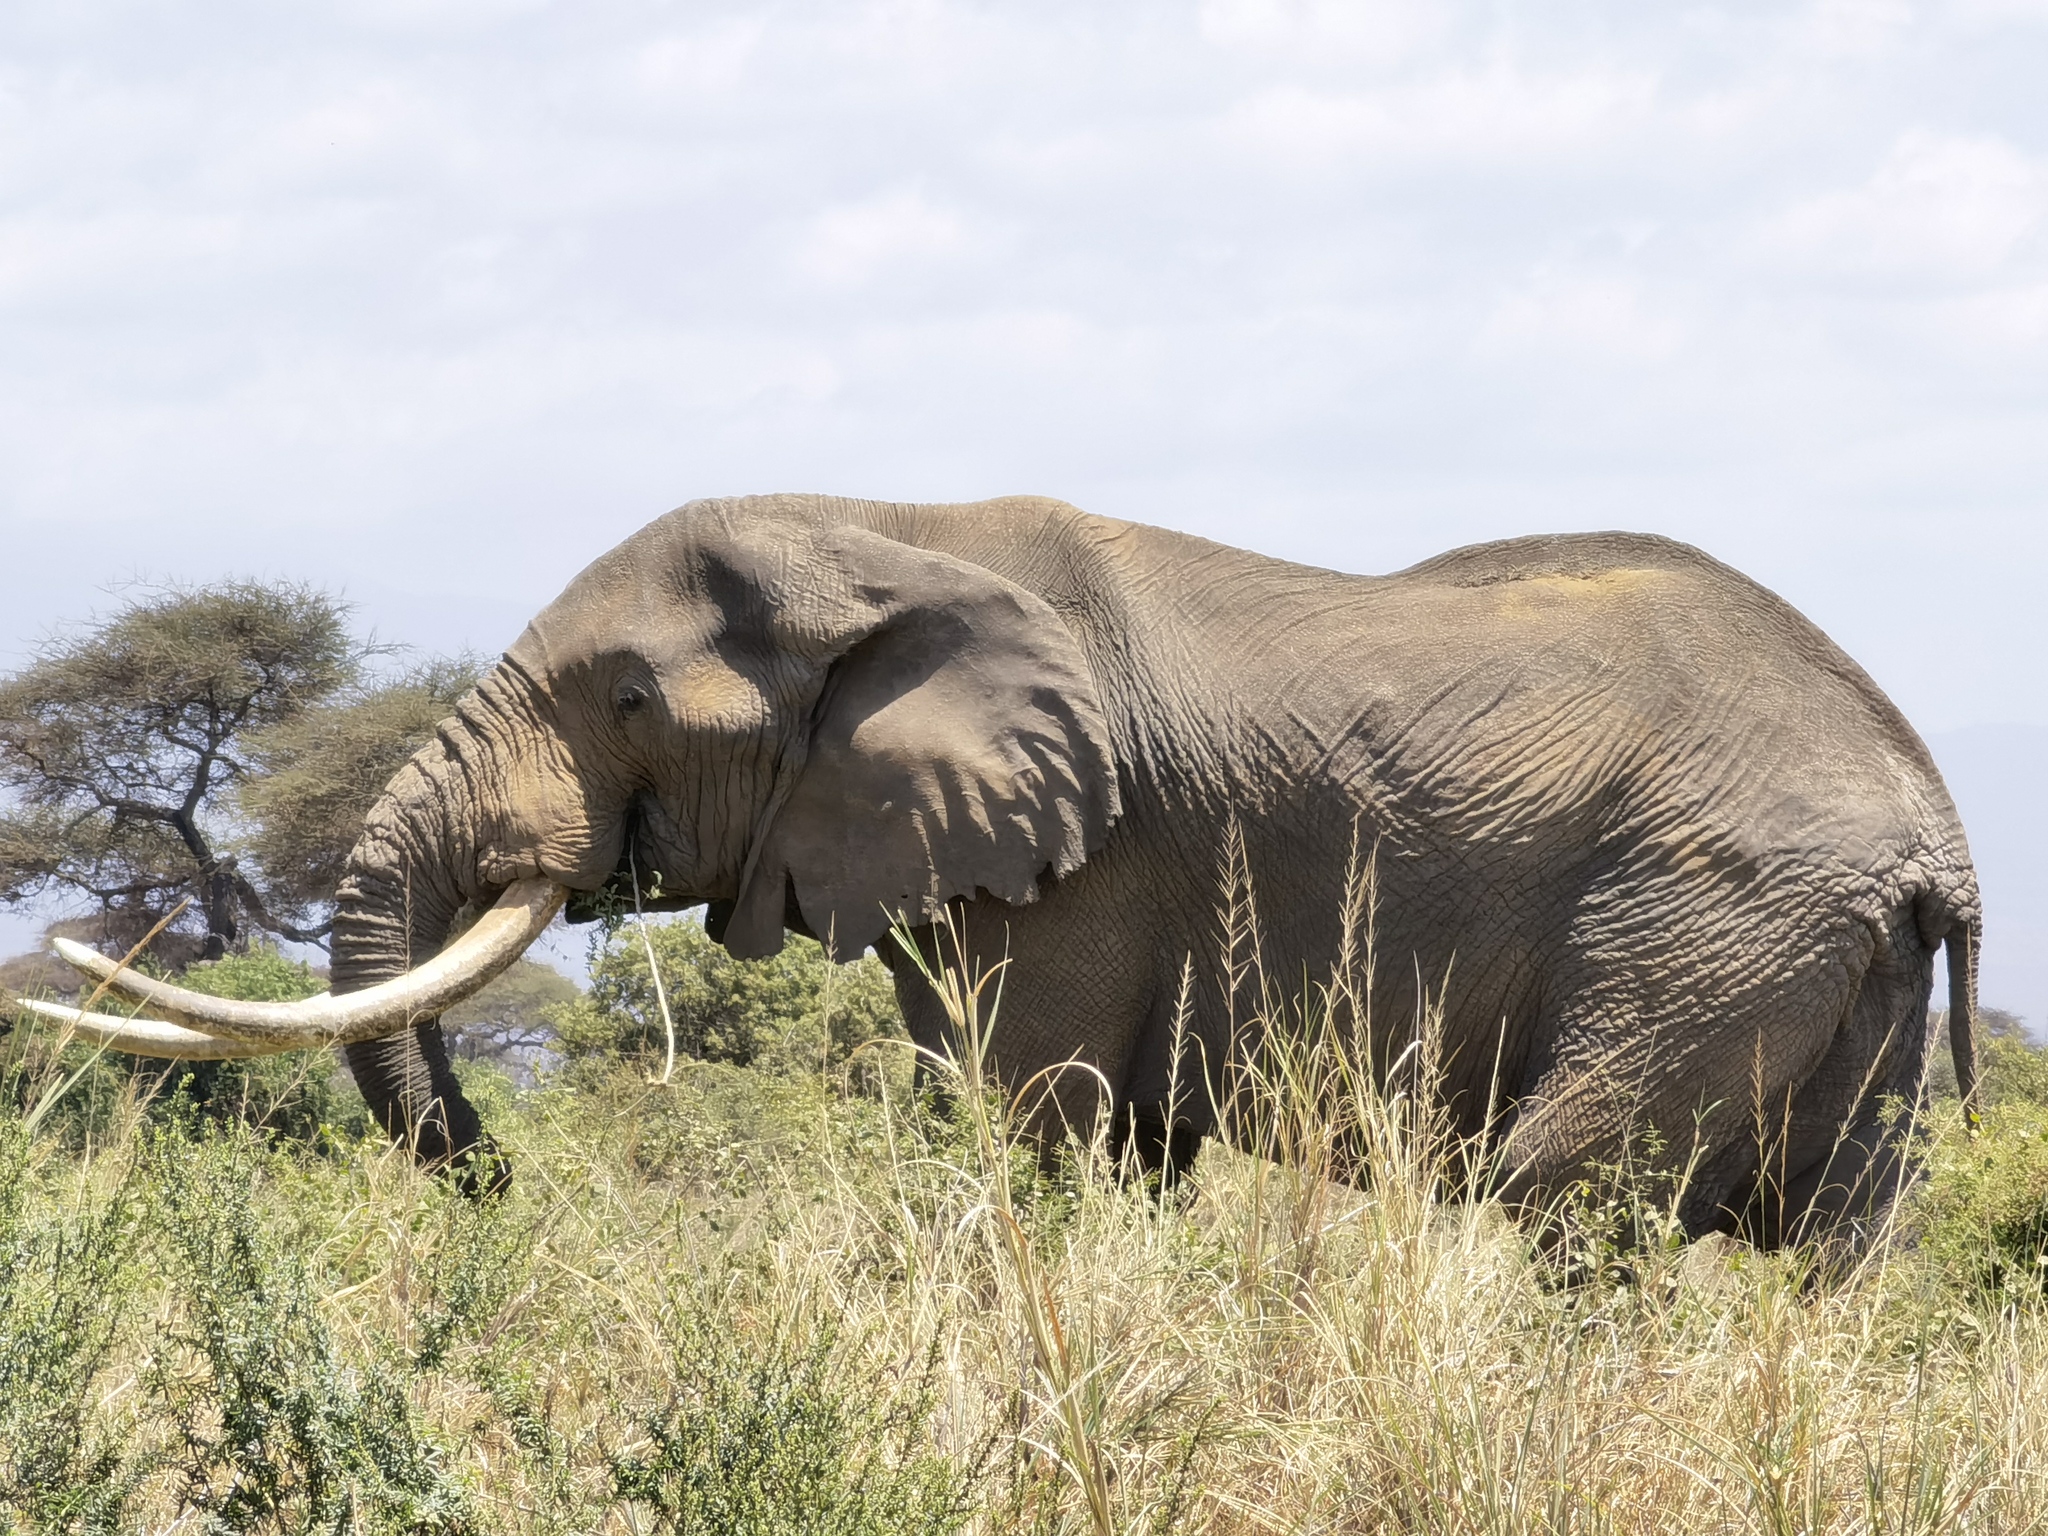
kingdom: Animalia
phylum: Chordata
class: Mammalia
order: Proboscidea
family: Elephantidae
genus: Loxodonta
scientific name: Loxodonta africana
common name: African elephant
